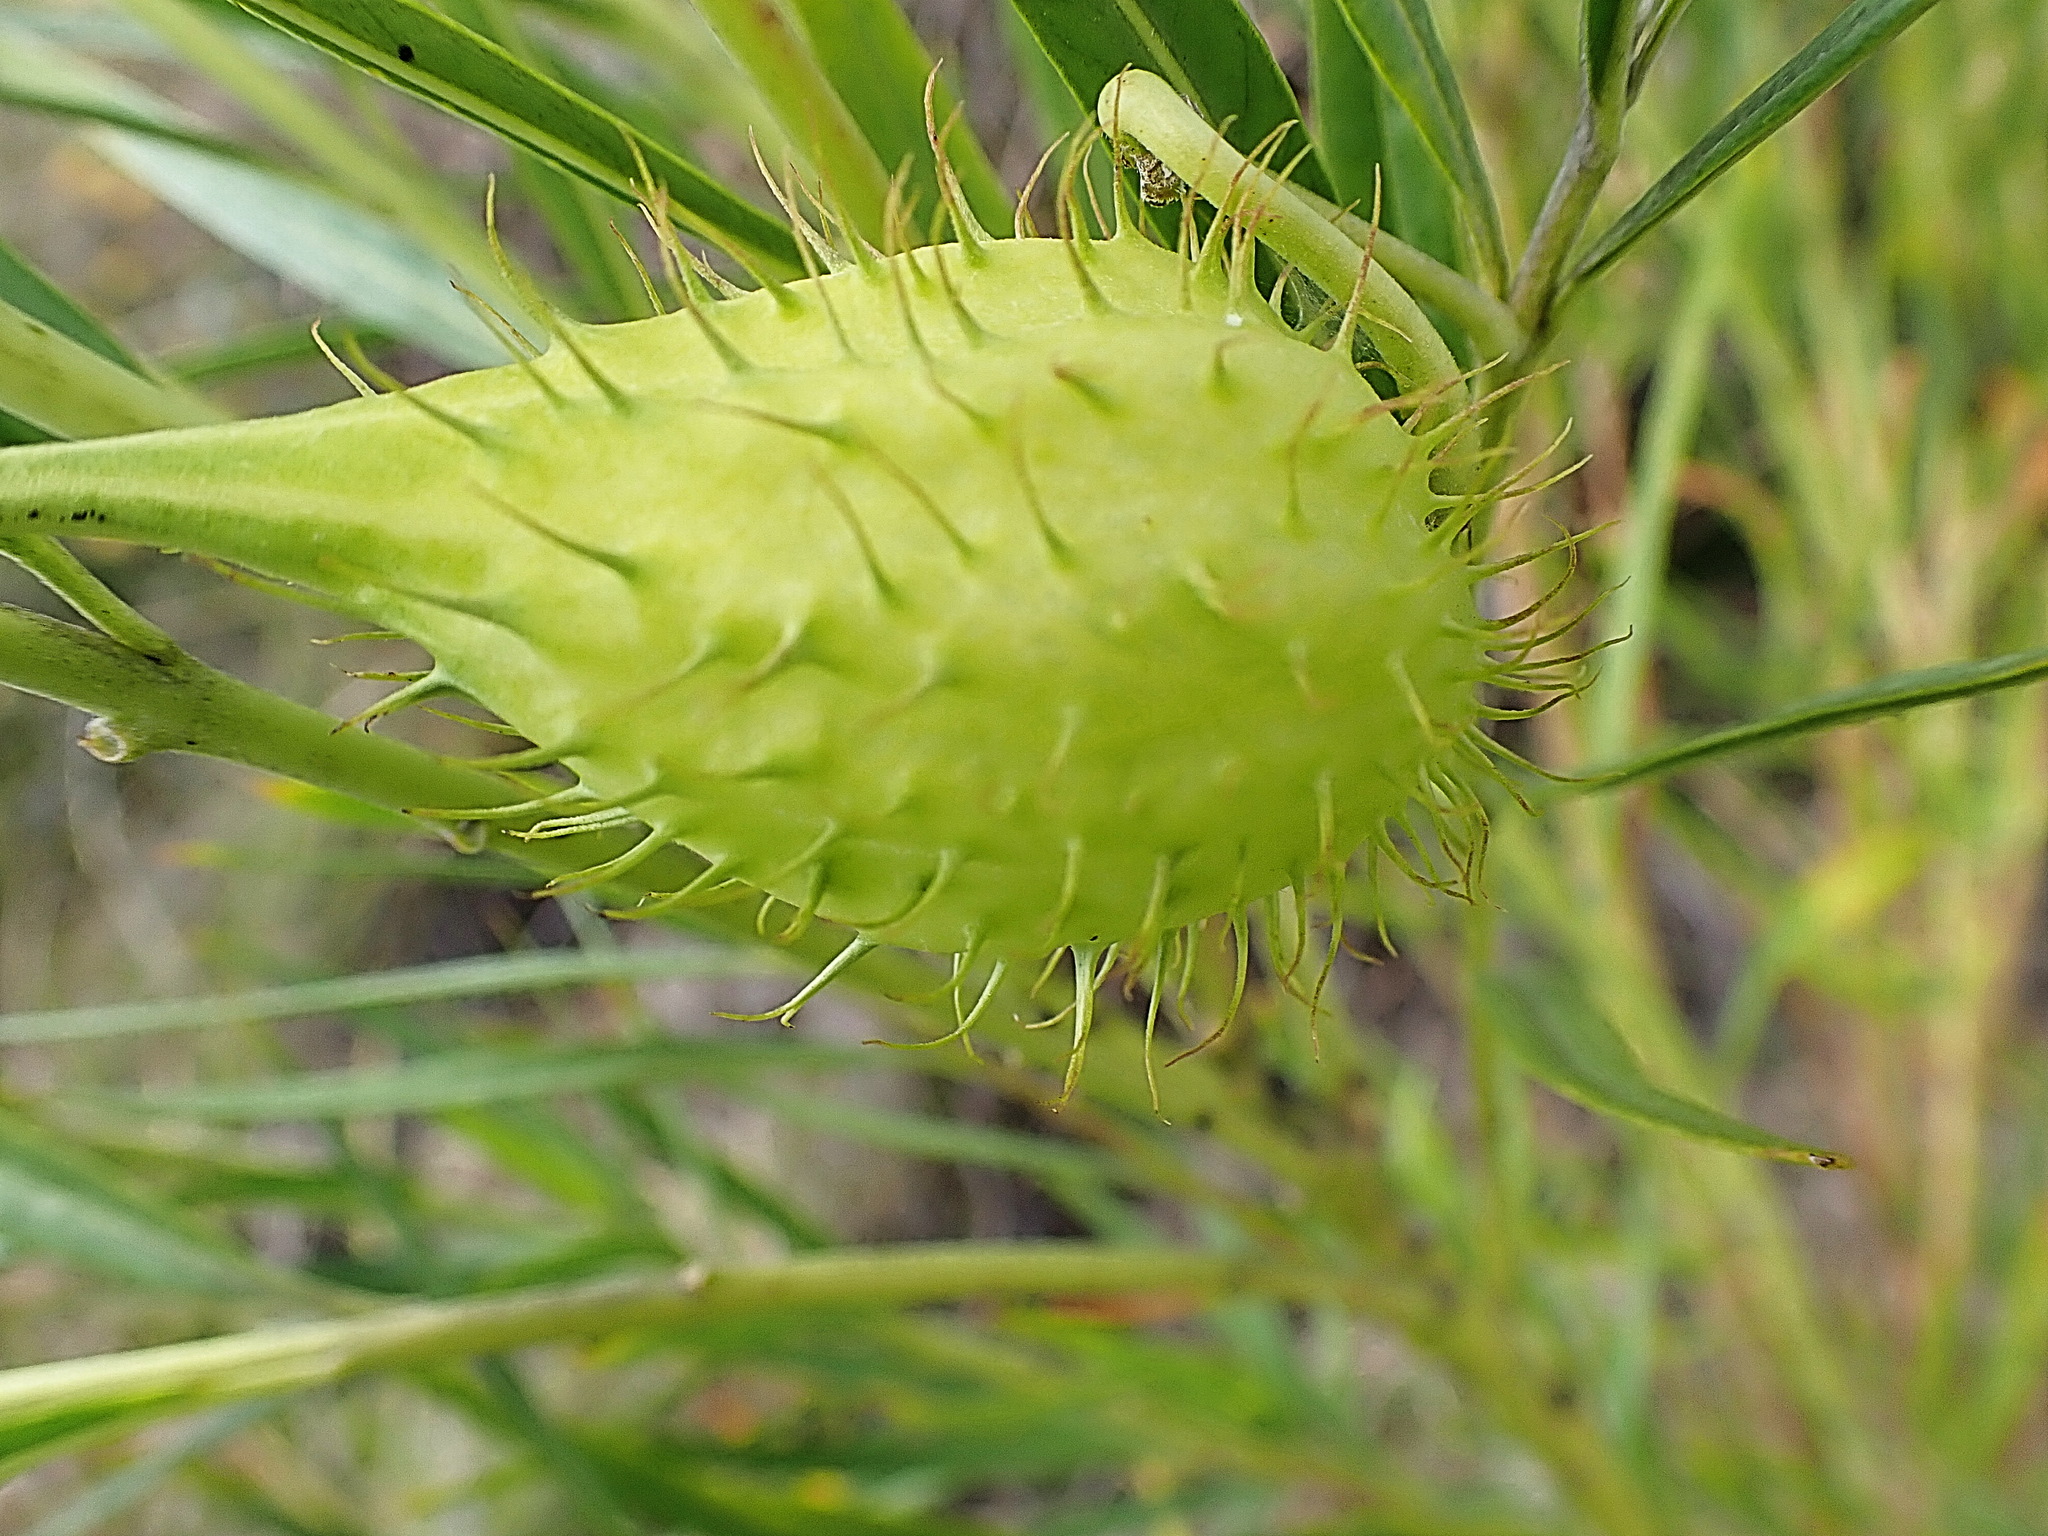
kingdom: Plantae
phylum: Tracheophyta
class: Magnoliopsida
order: Gentianales
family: Apocynaceae
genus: Gomphocarpus
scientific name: Gomphocarpus fruticosus
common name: Milkweed
